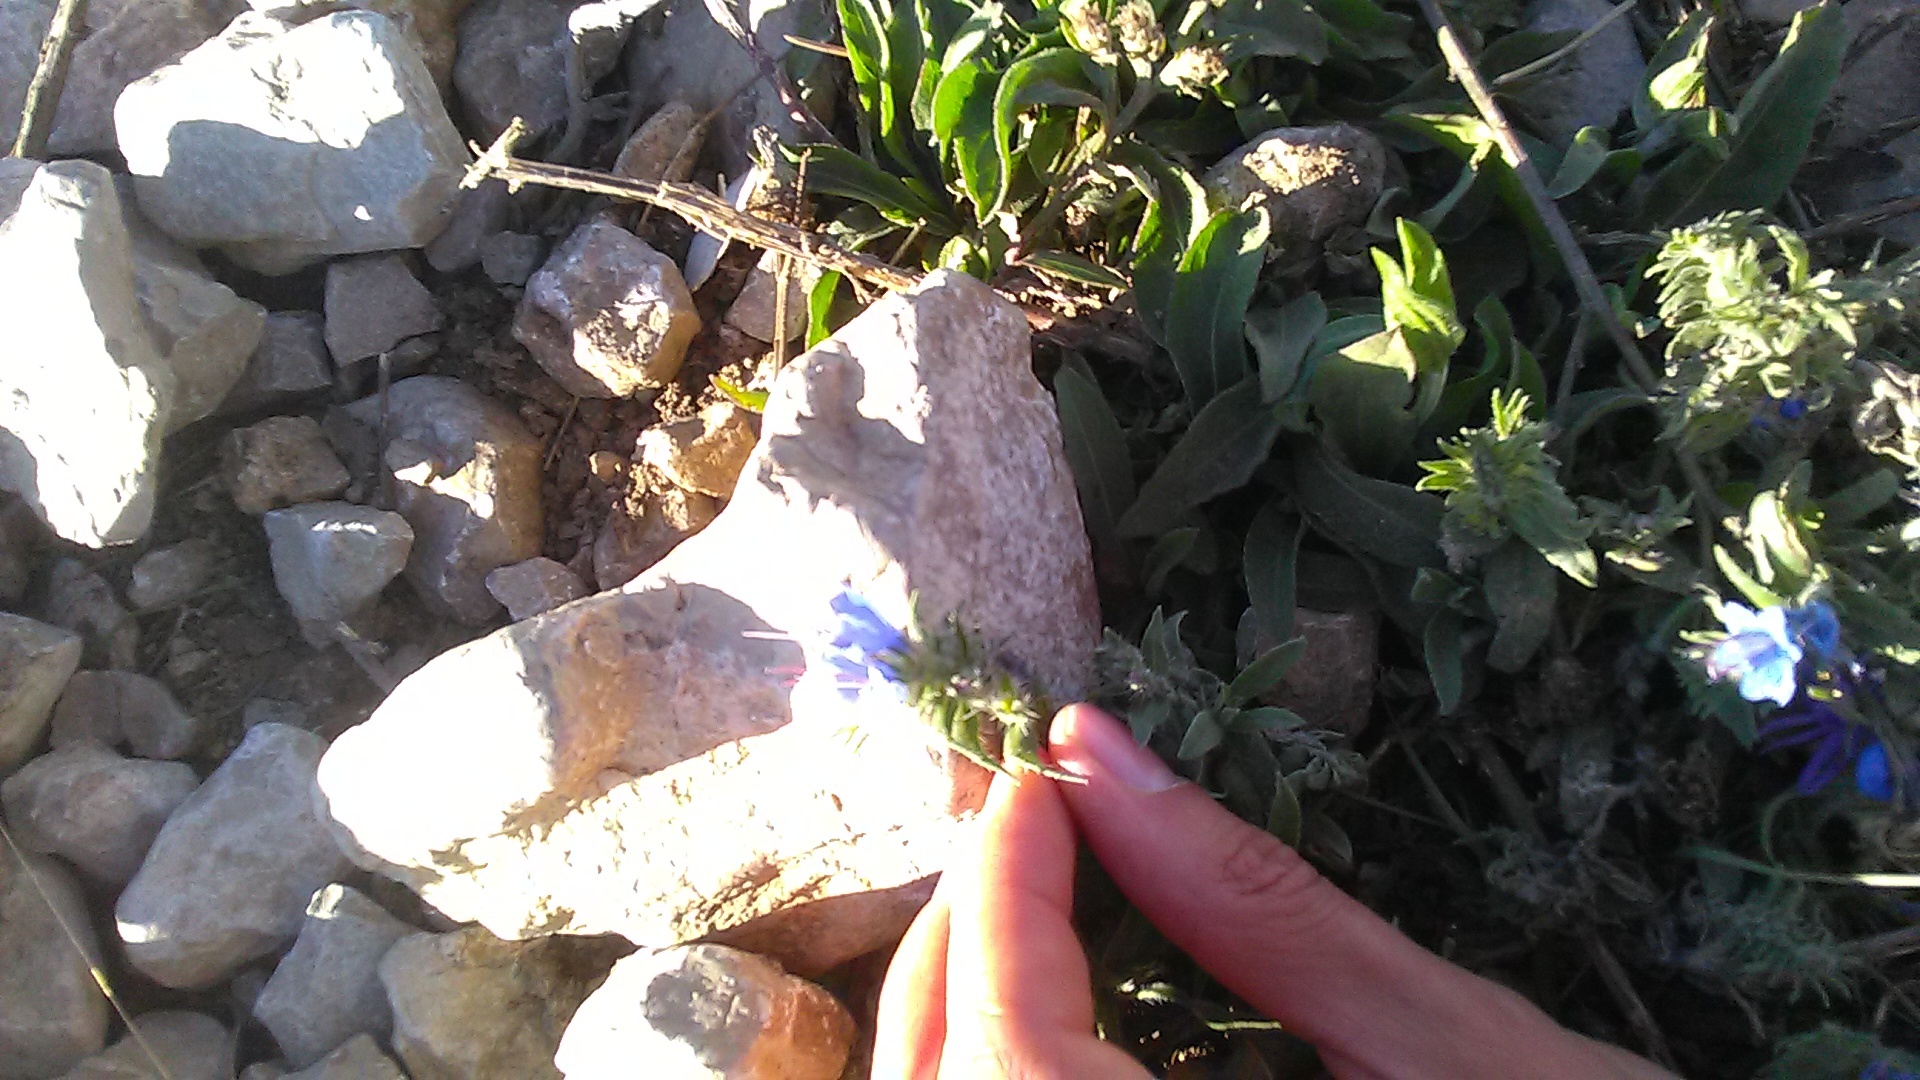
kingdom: Plantae
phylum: Tracheophyta
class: Magnoliopsida
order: Boraginales
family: Boraginaceae
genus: Echium
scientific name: Echium vulgare
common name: Common viper's bugloss
